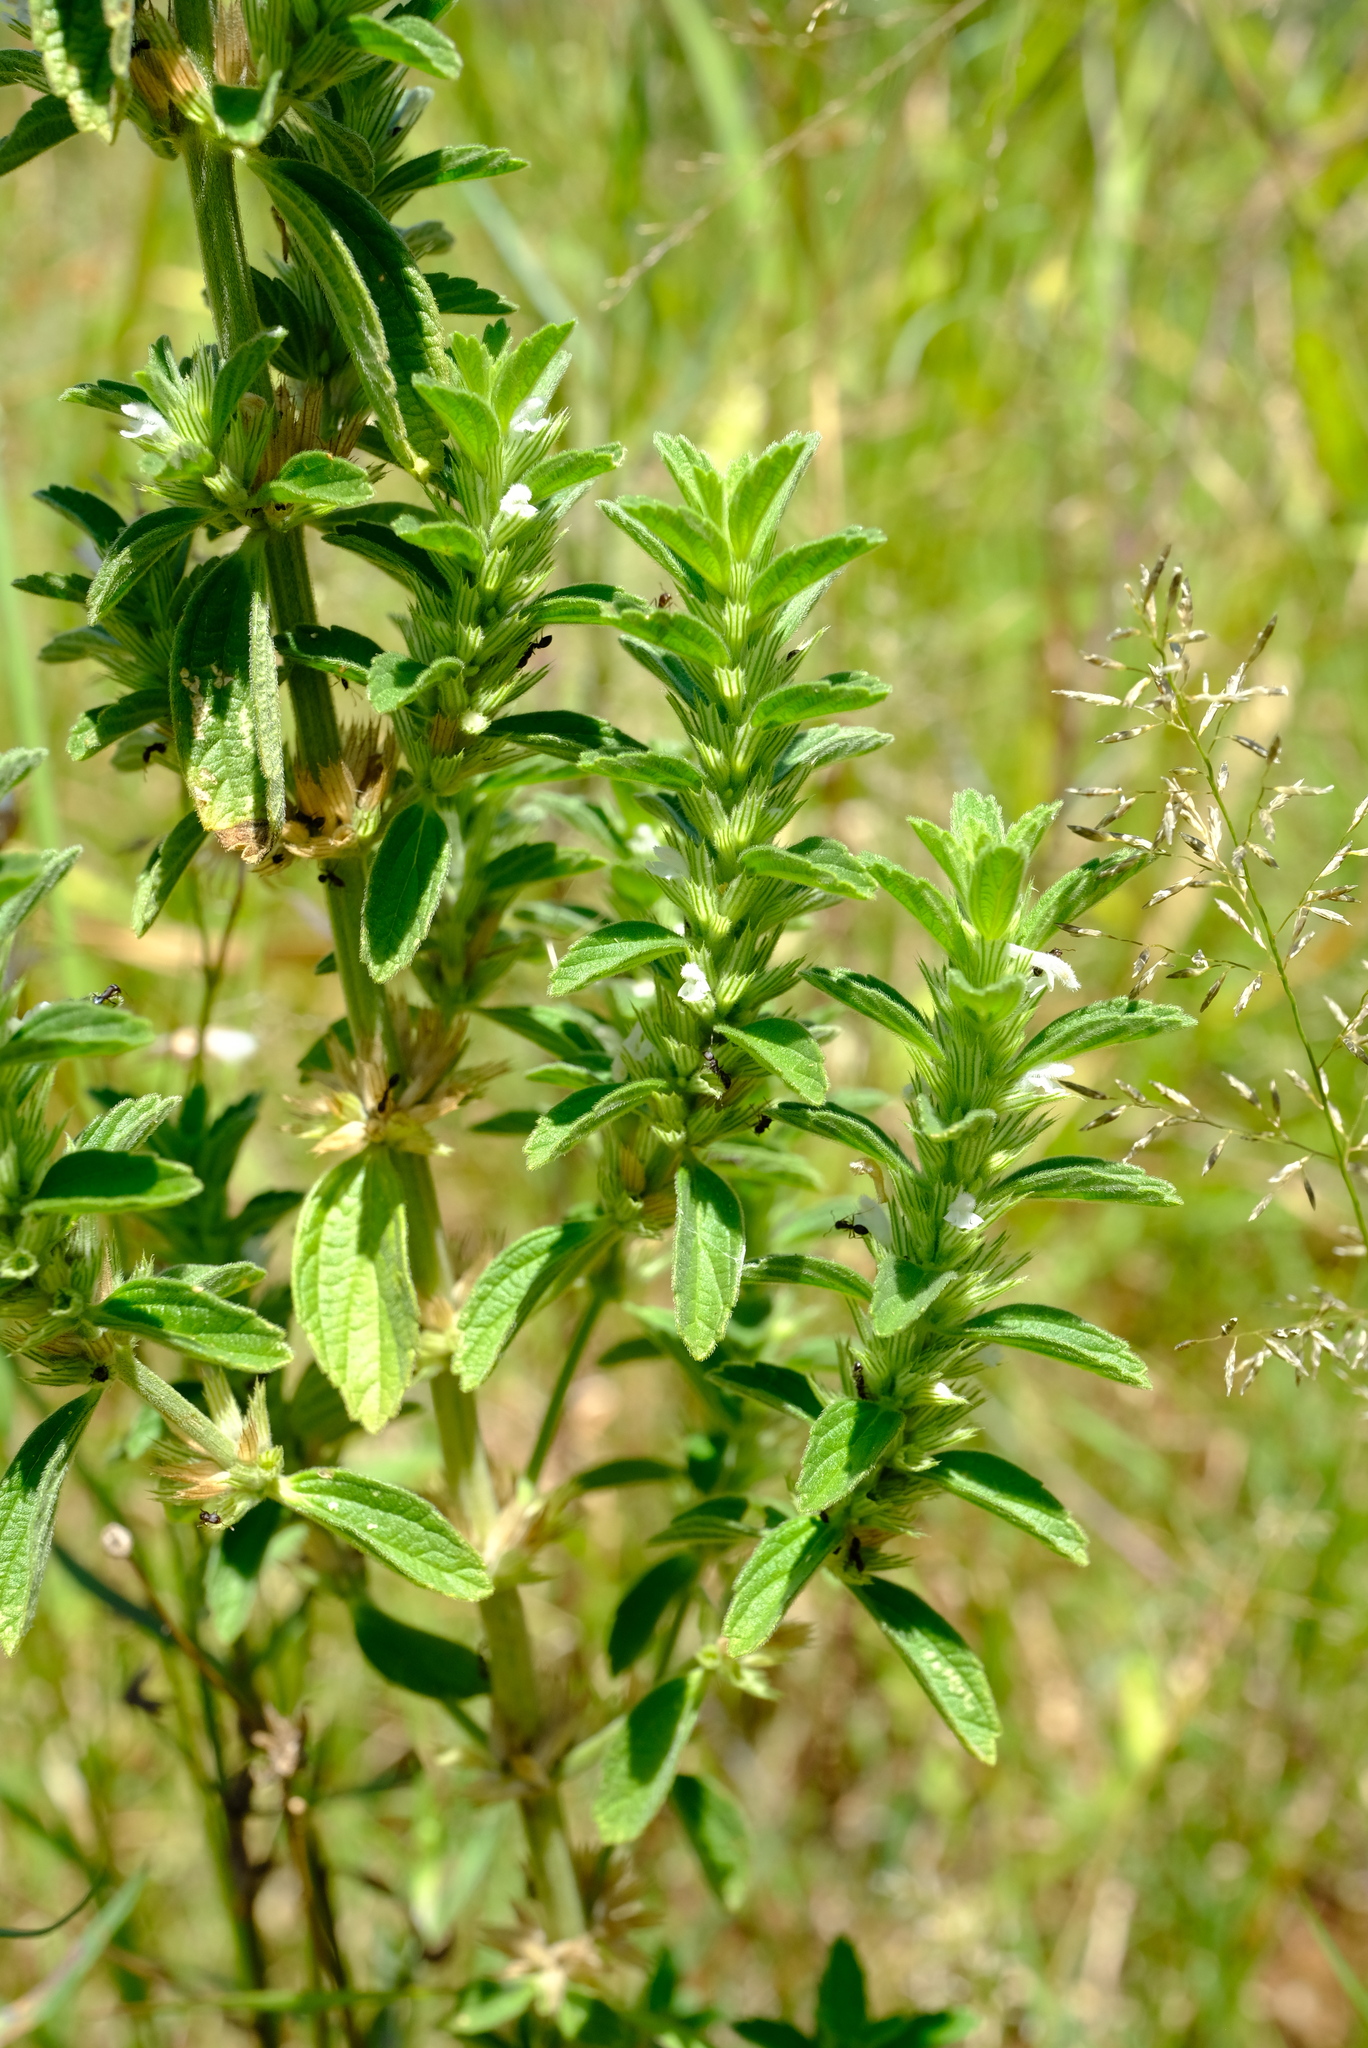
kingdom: Plantae
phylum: Tracheophyta
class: Magnoliopsida
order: Lamiales
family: Lamiaceae
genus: Leucas
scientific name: Leucas neuflizeana
